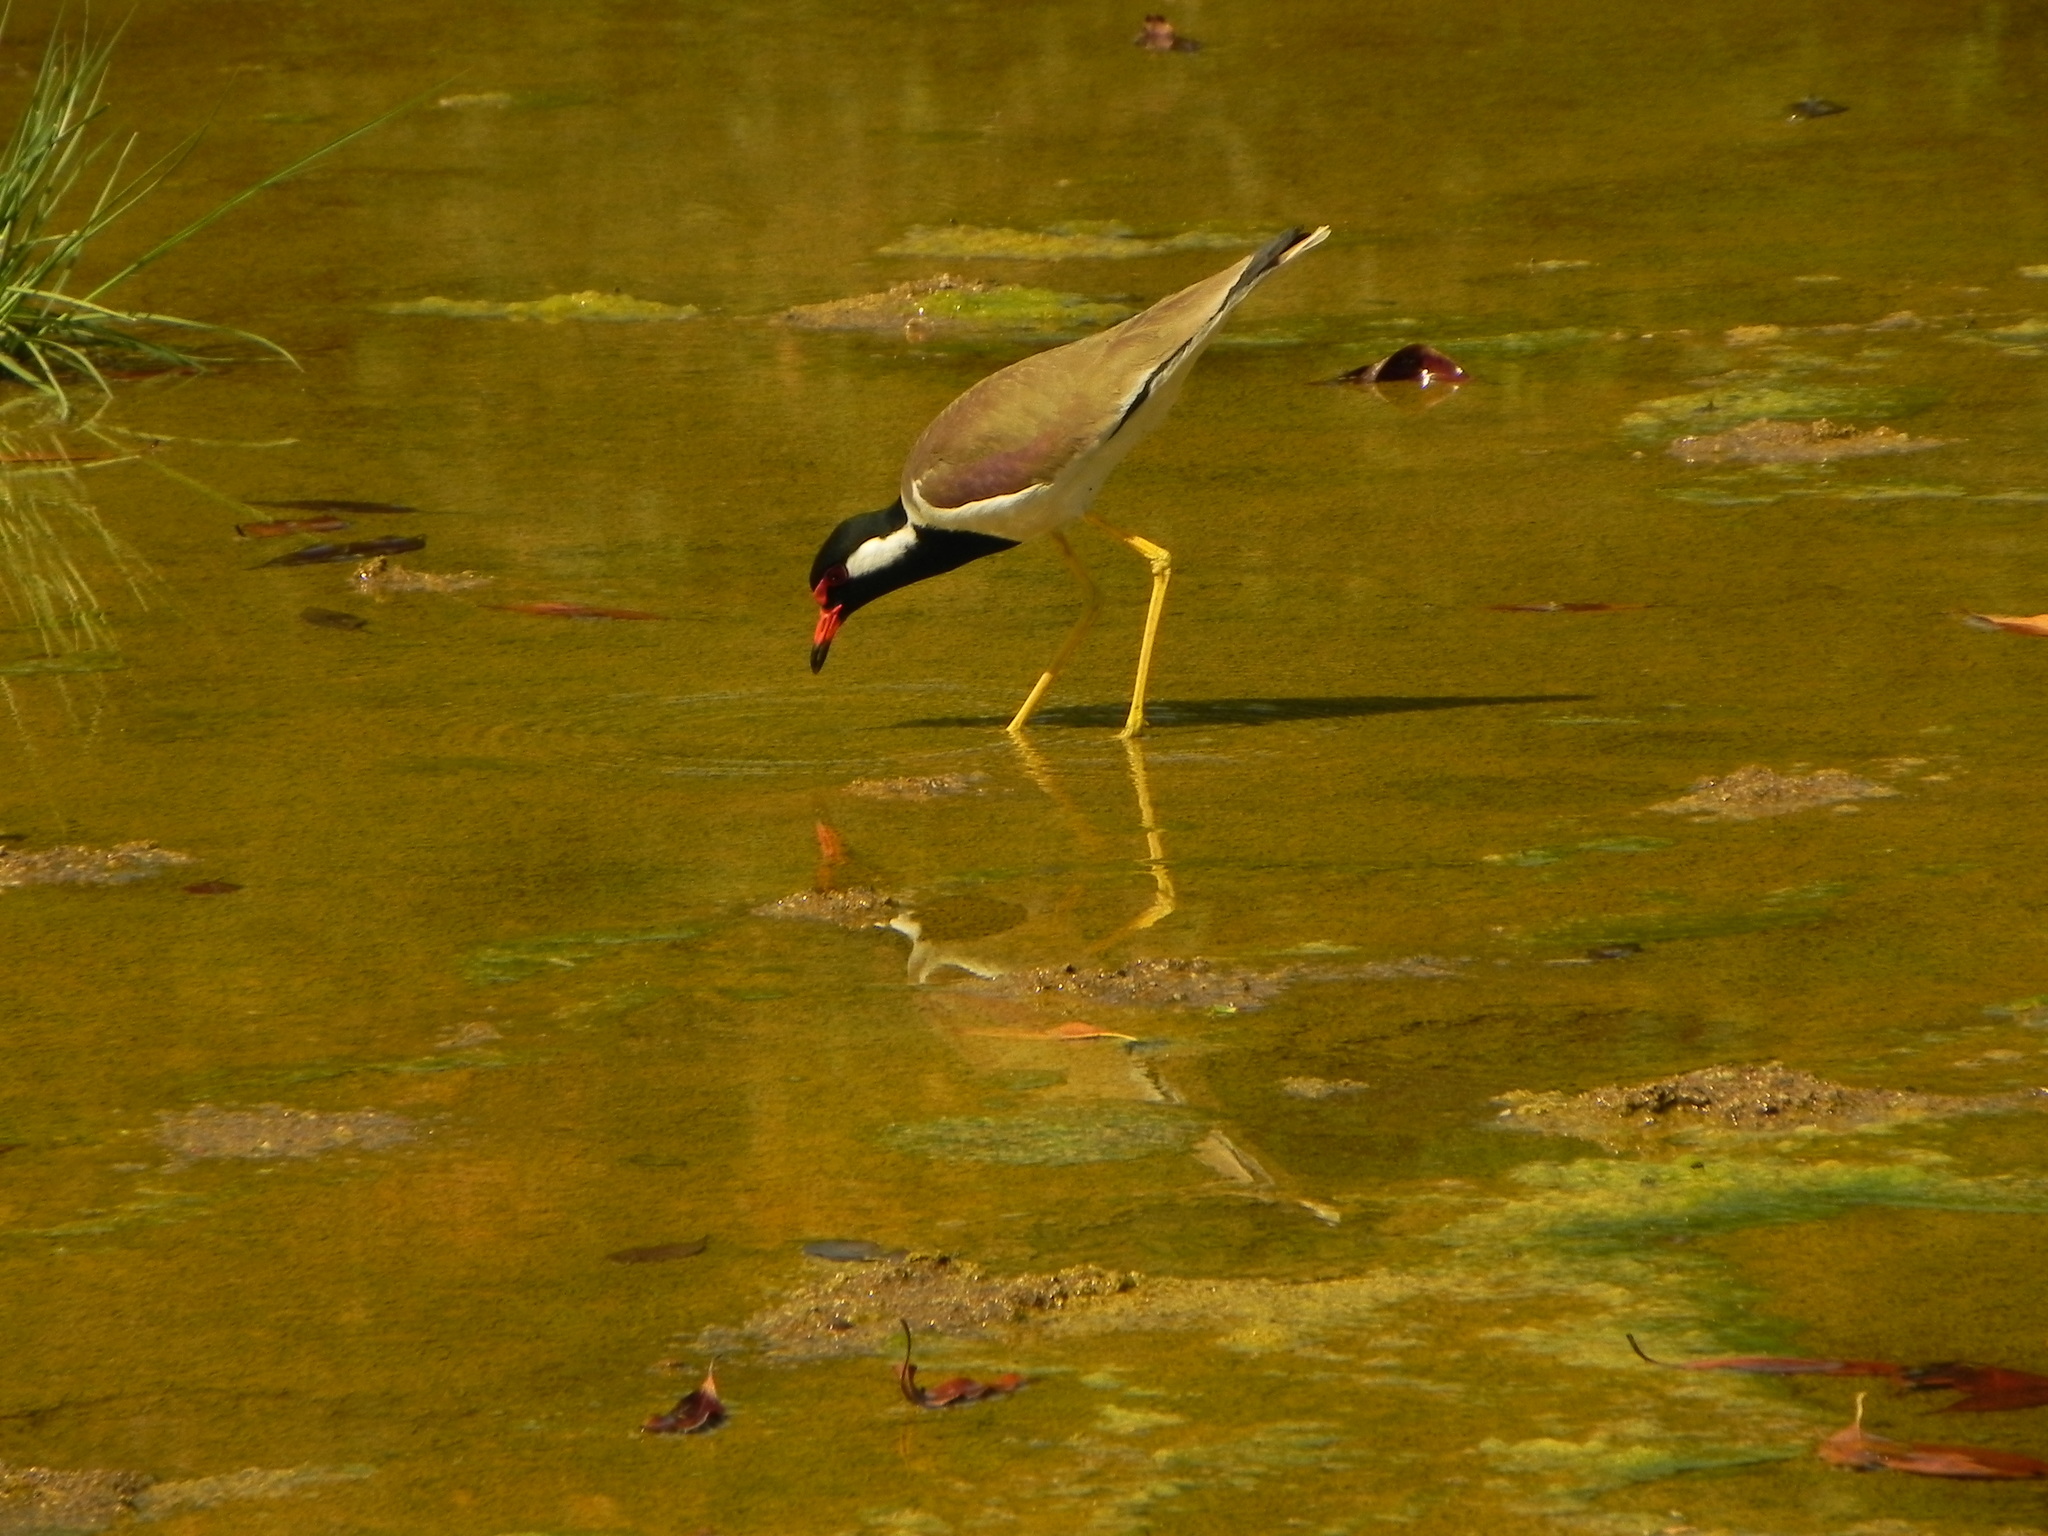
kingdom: Animalia
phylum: Chordata
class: Aves
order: Charadriiformes
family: Charadriidae
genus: Vanellus
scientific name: Vanellus indicus
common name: Red-wattled lapwing
